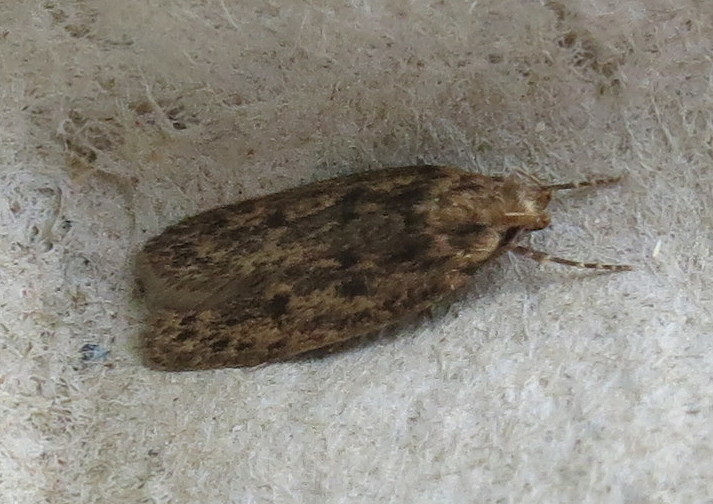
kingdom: Animalia
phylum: Arthropoda
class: Insecta
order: Lepidoptera
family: Oecophoridae
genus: Hofmannophila
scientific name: Hofmannophila pseudospretella
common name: Brown house moth
